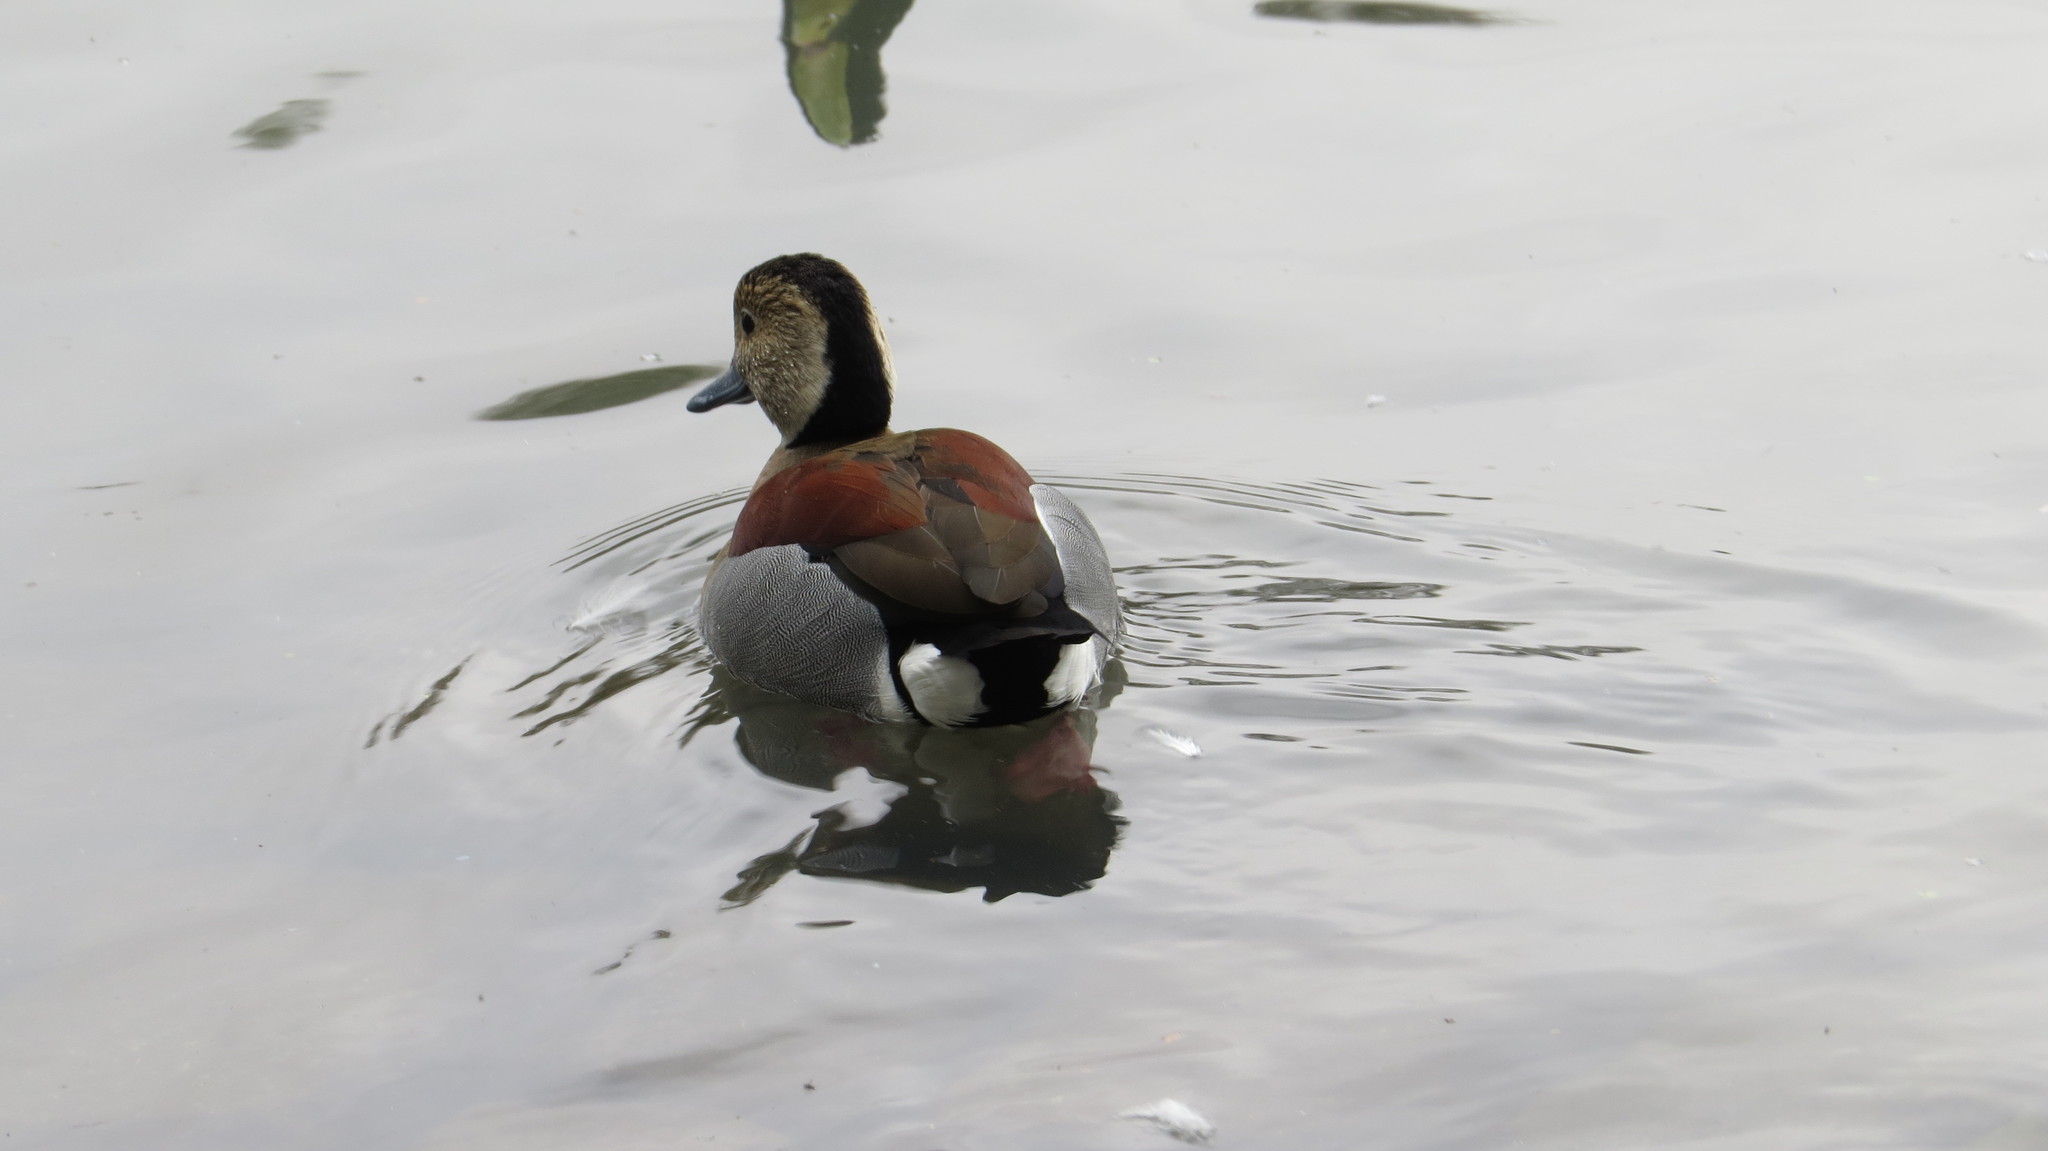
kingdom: Animalia
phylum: Chordata
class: Aves
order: Anseriformes
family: Anatidae
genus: Callonetta
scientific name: Callonetta leucophrys
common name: Ringed teal
